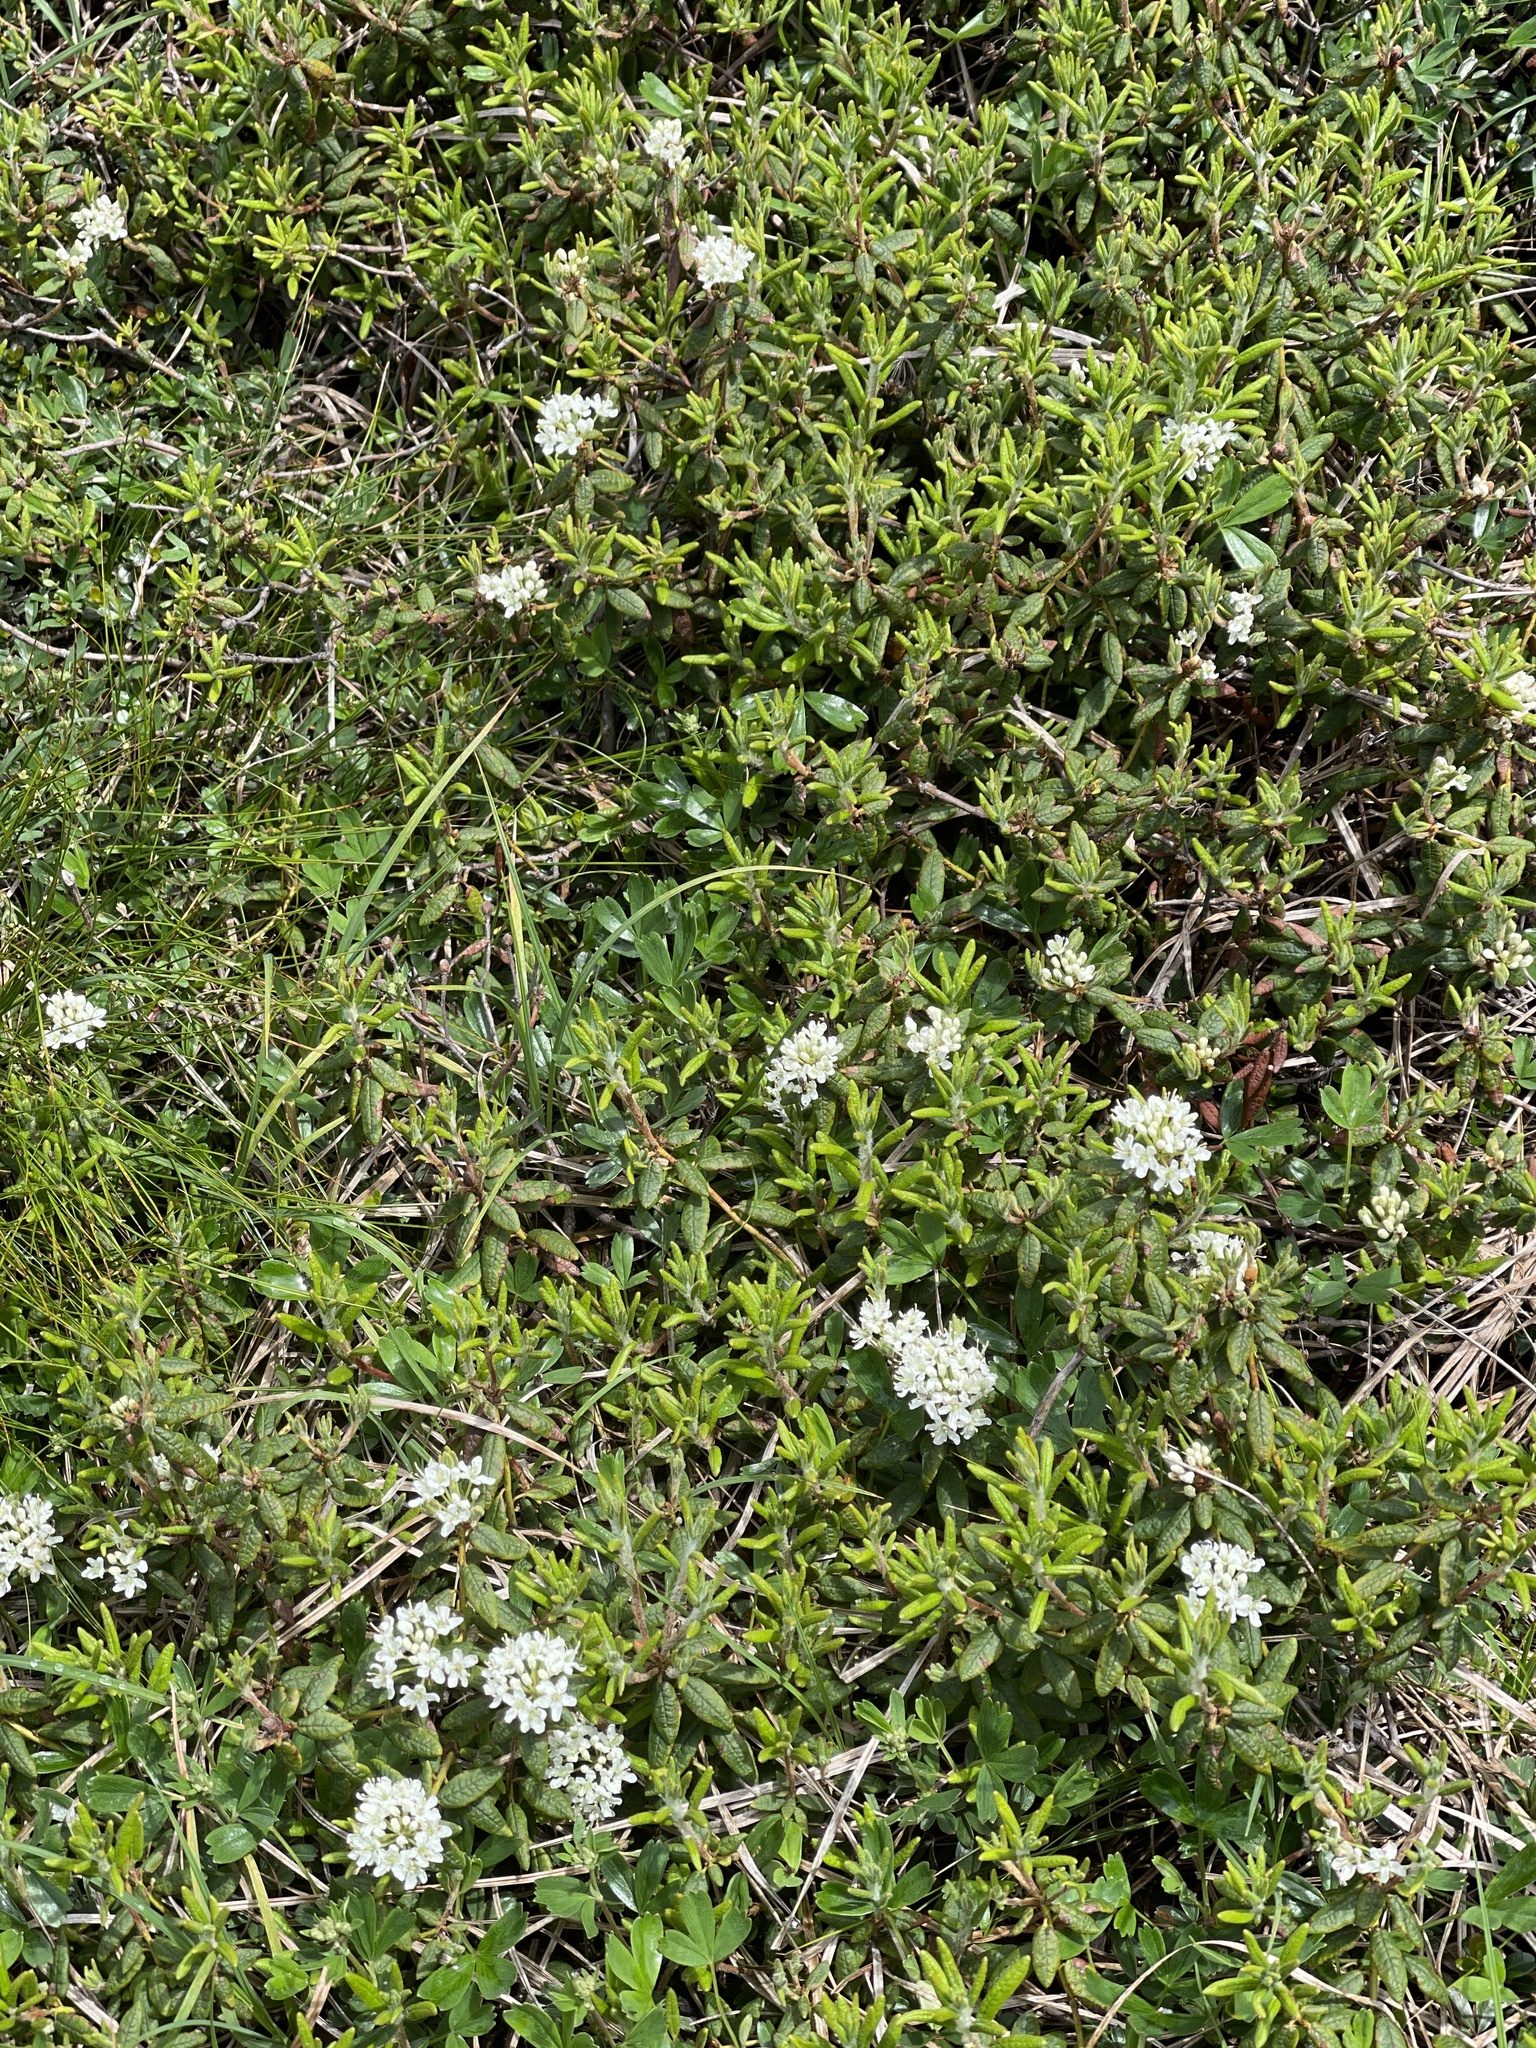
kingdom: Plantae
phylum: Tracheophyta
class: Magnoliopsida
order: Ericales
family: Ericaceae
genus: Rhododendron
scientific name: Rhododendron groenlandicum
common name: Bog labrador tea
